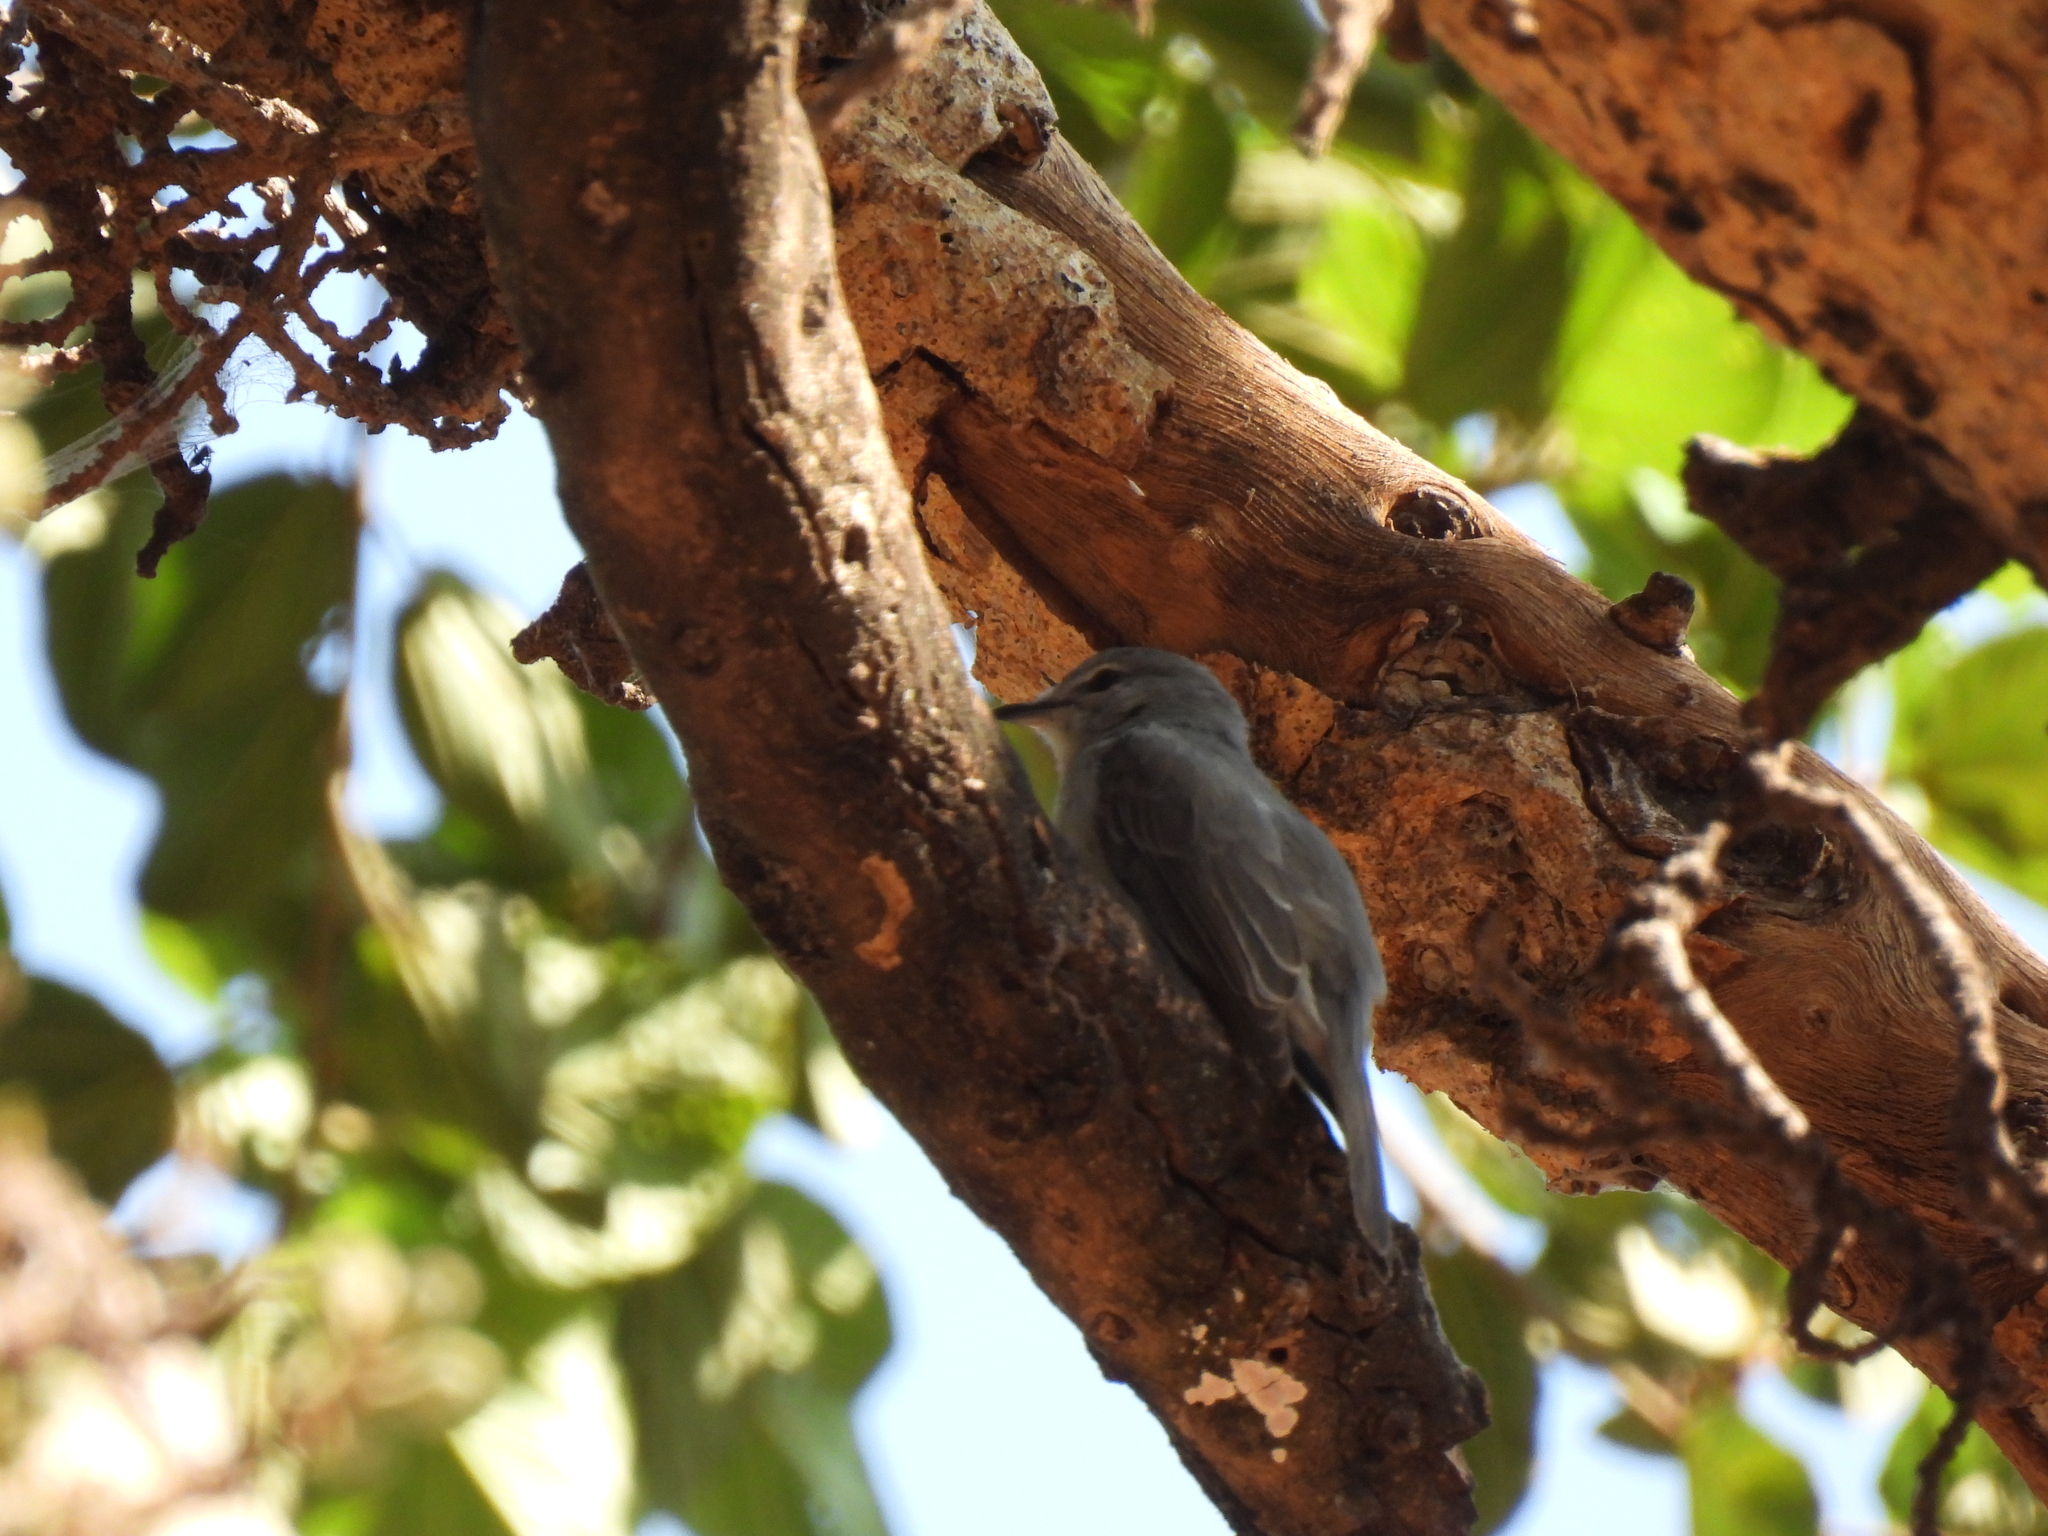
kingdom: Animalia
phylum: Chordata
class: Aves
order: Passeriformes
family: Muscicapidae
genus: Muscicapa
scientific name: Muscicapa caerulescens
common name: Ashy flycatcher
